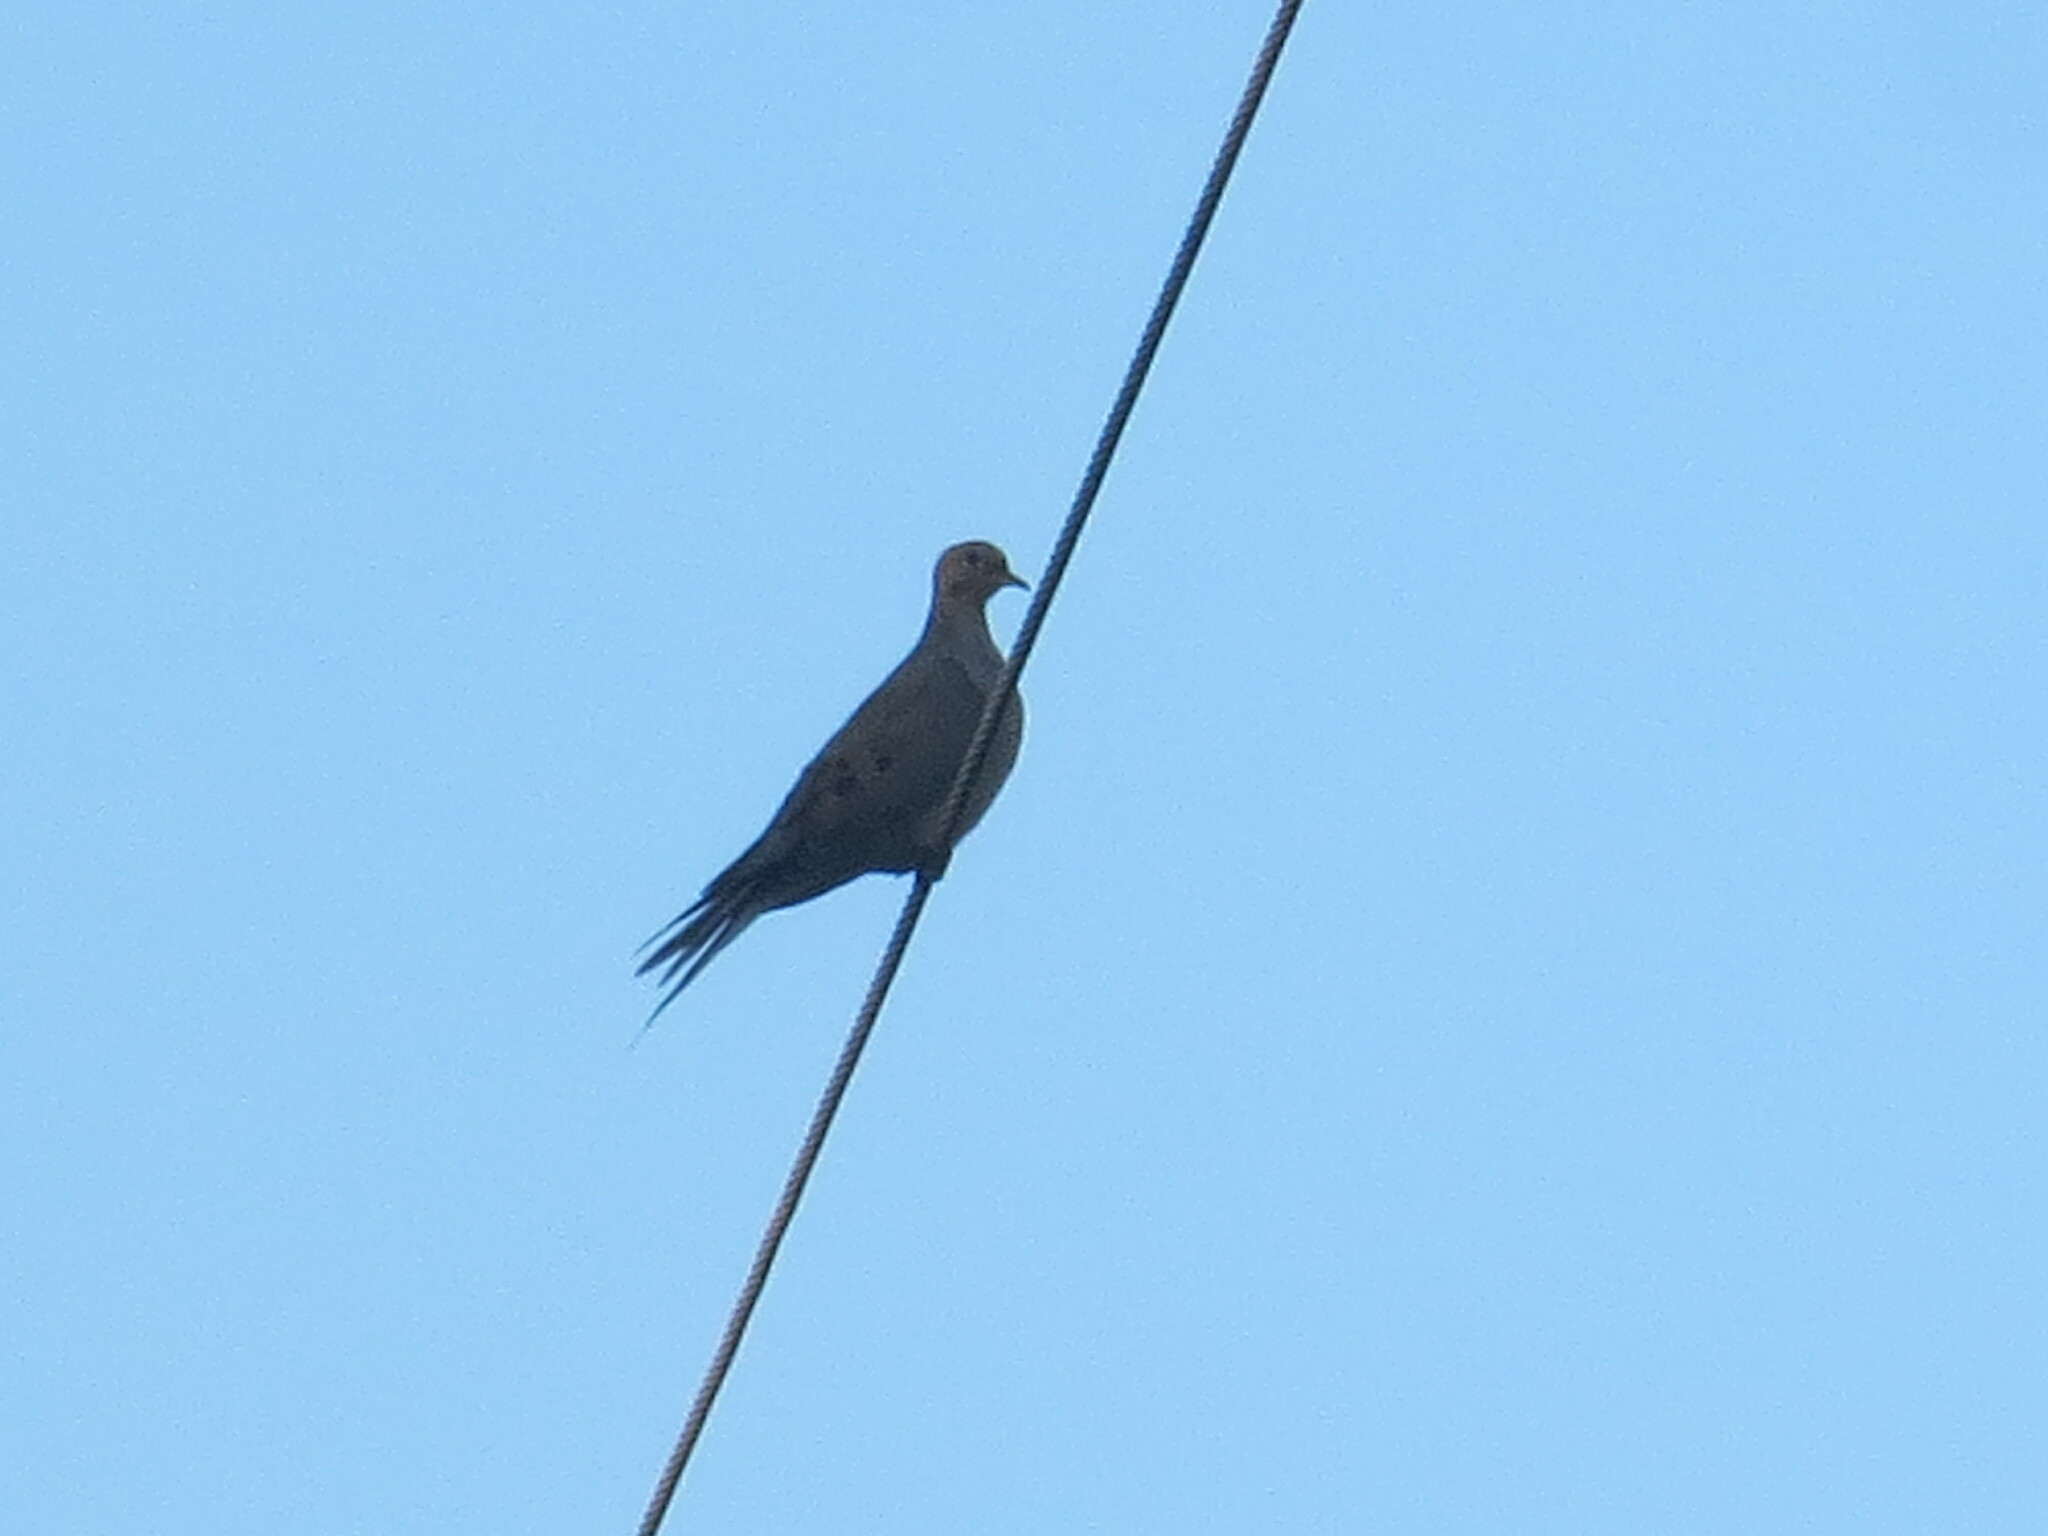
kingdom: Animalia
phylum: Chordata
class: Aves
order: Columbiformes
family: Columbidae
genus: Zenaida
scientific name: Zenaida macroura
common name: Mourning dove
